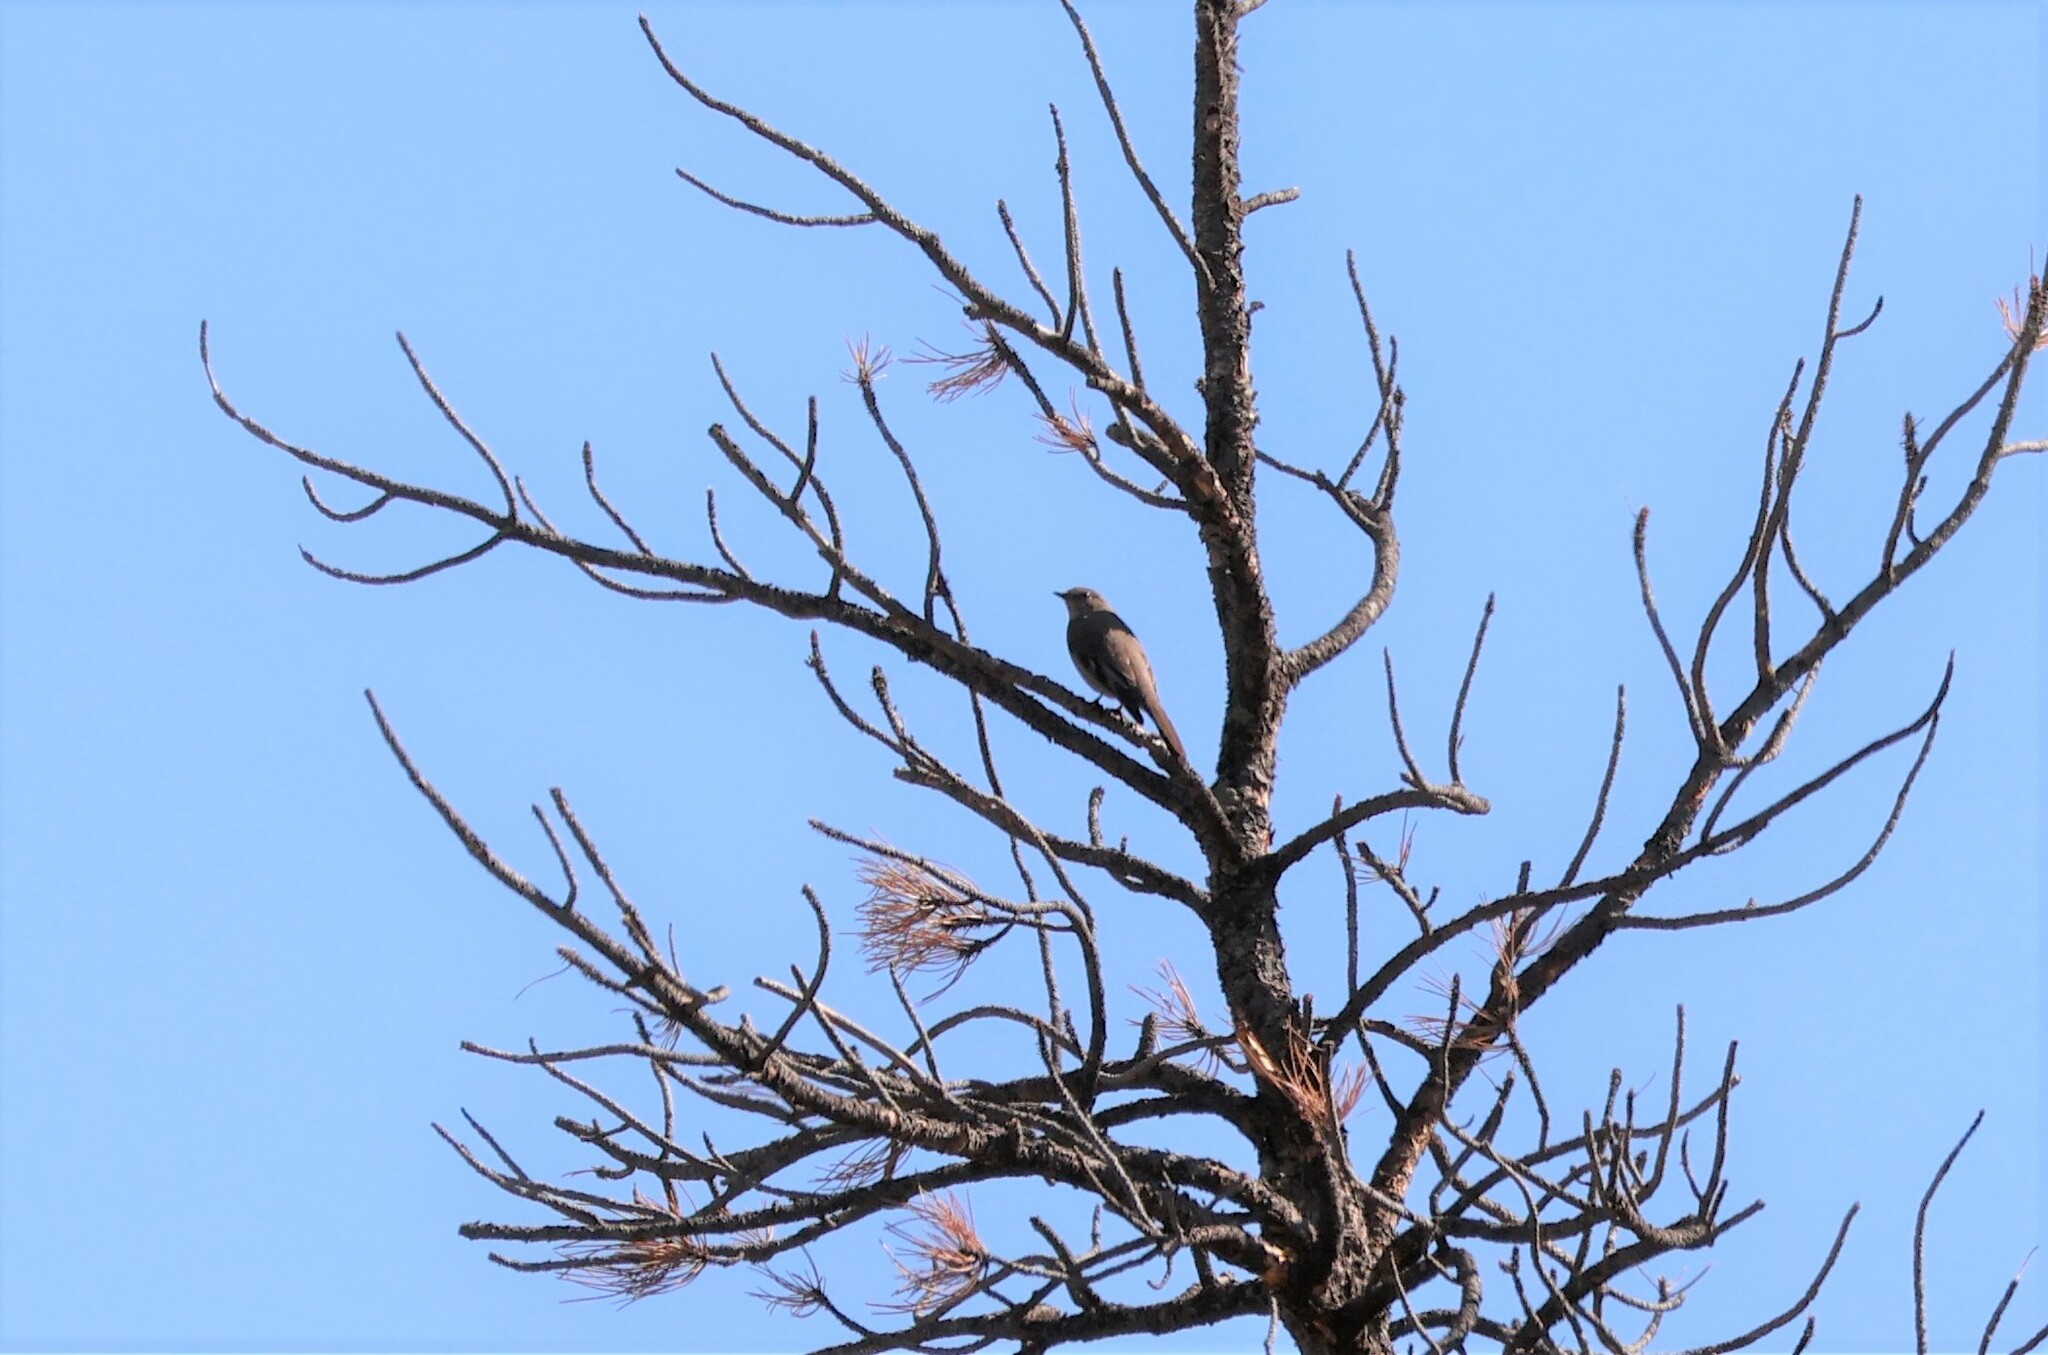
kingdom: Animalia
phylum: Chordata
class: Aves
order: Passeriformes
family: Turdidae
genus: Myadestes
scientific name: Myadestes townsendi
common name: Townsend's solitaire
